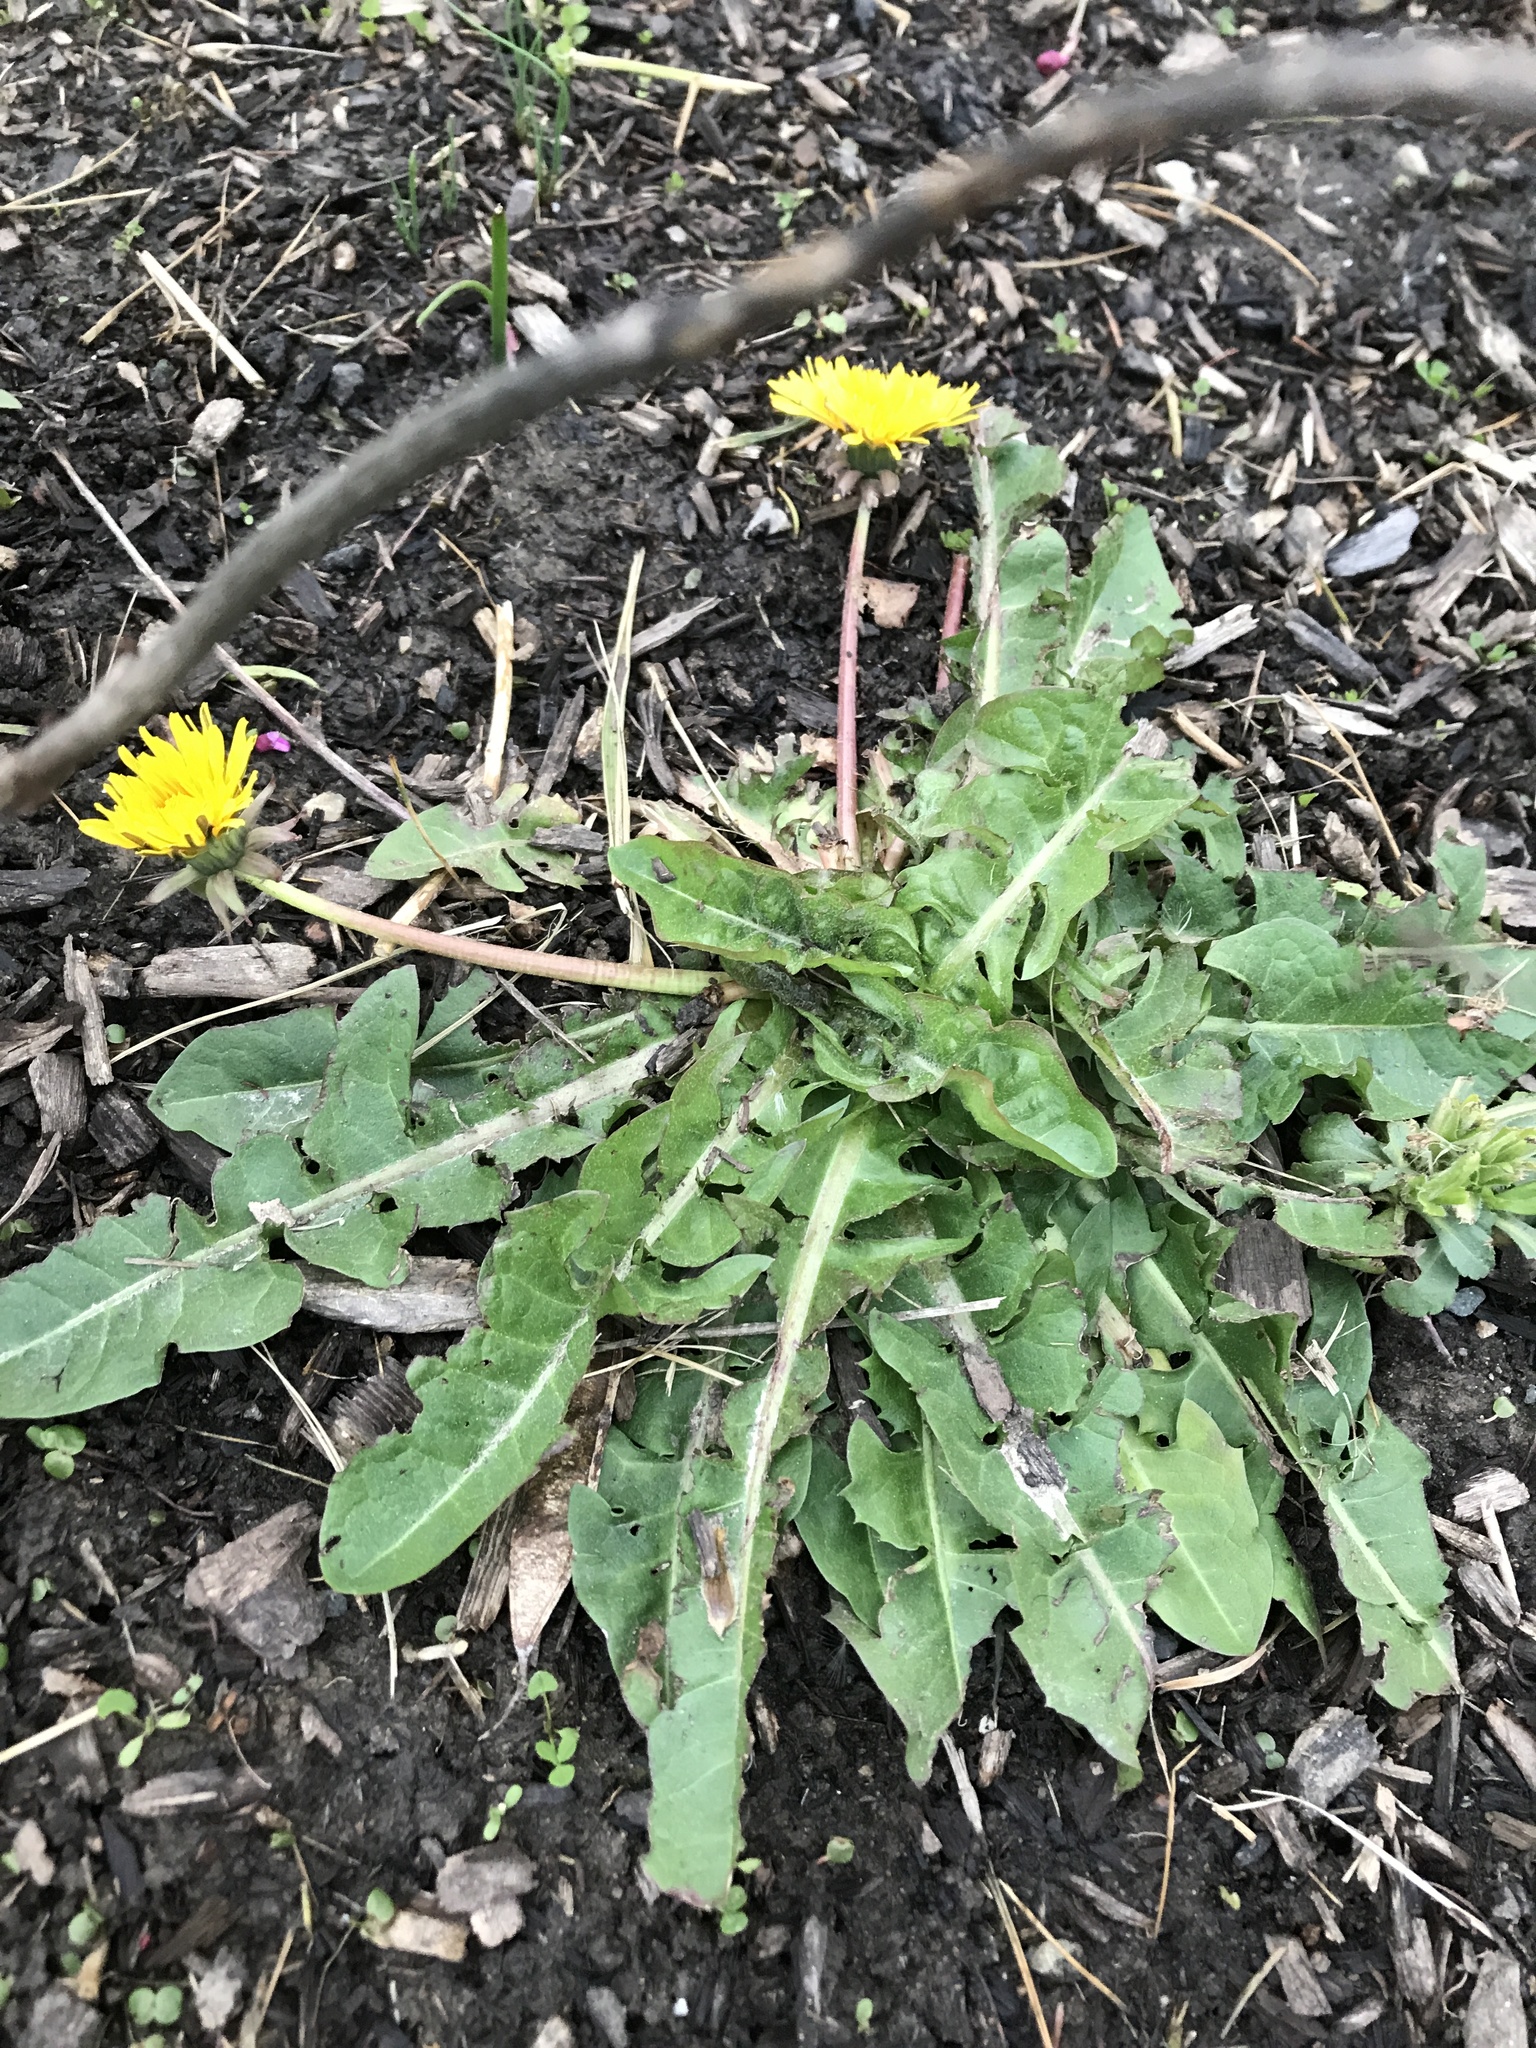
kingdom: Plantae
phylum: Tracheophyta
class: Magnoliopsida
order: Asterales
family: Asteraceae
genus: Taraxacum
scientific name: Taraxacum officinale
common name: Common dandelion
